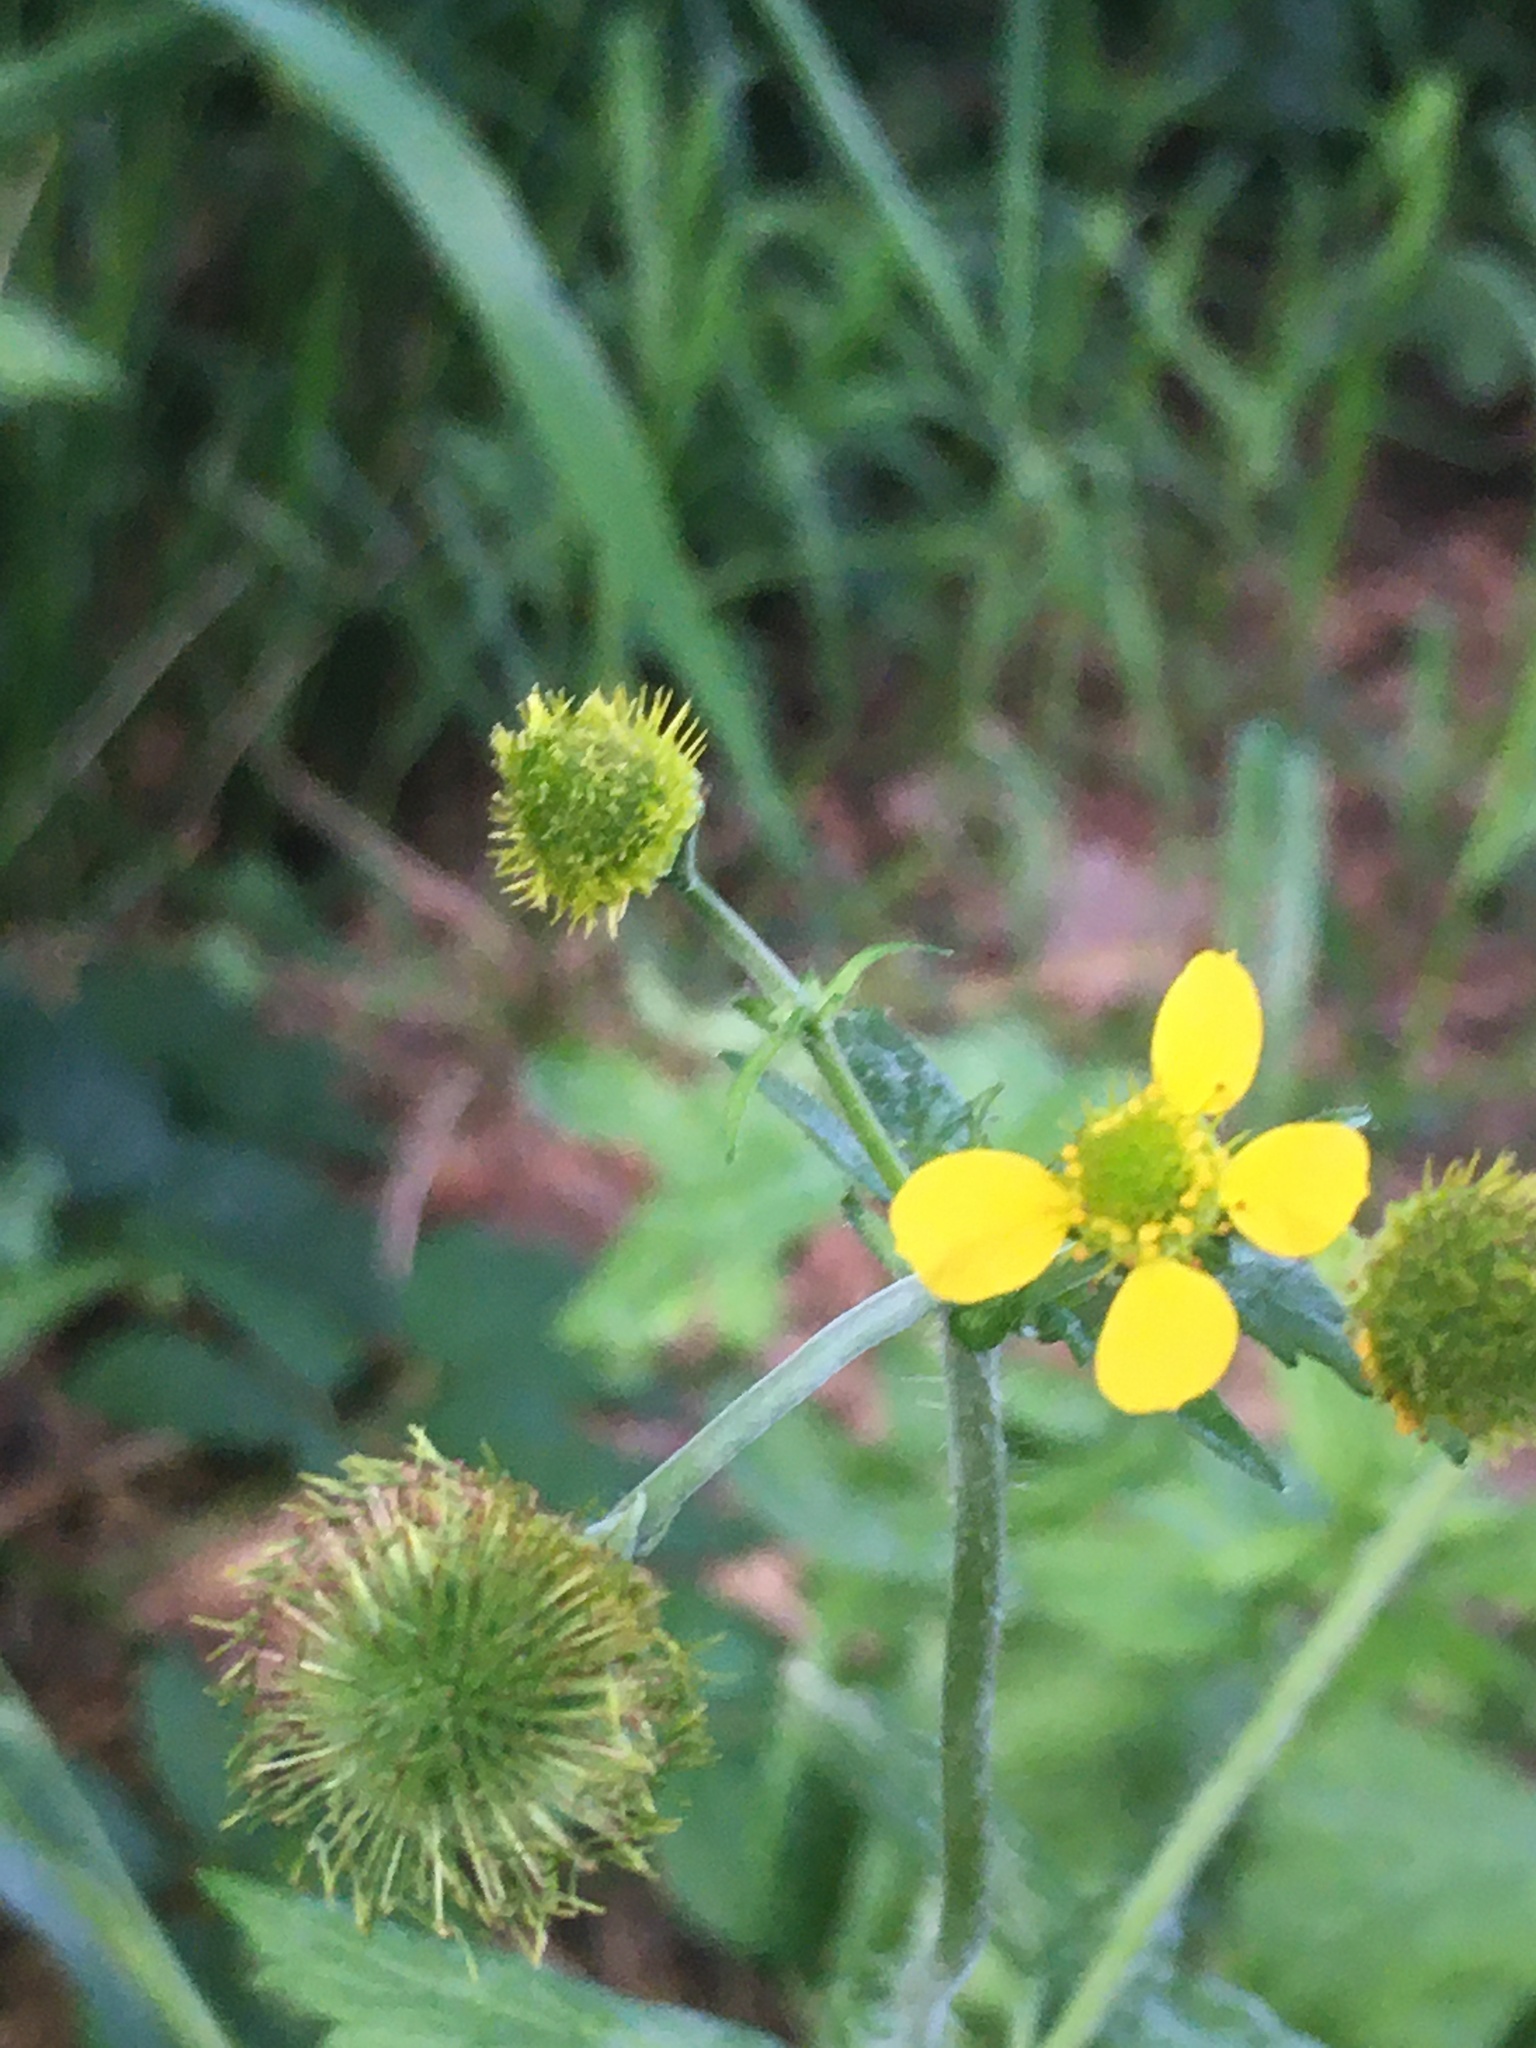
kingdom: Plantae
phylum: Tracheophyta
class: Magnoliopsida
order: Rosales
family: Rosaceae
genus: Geum
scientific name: Geum macrophyllum
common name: Large-leaved avens
